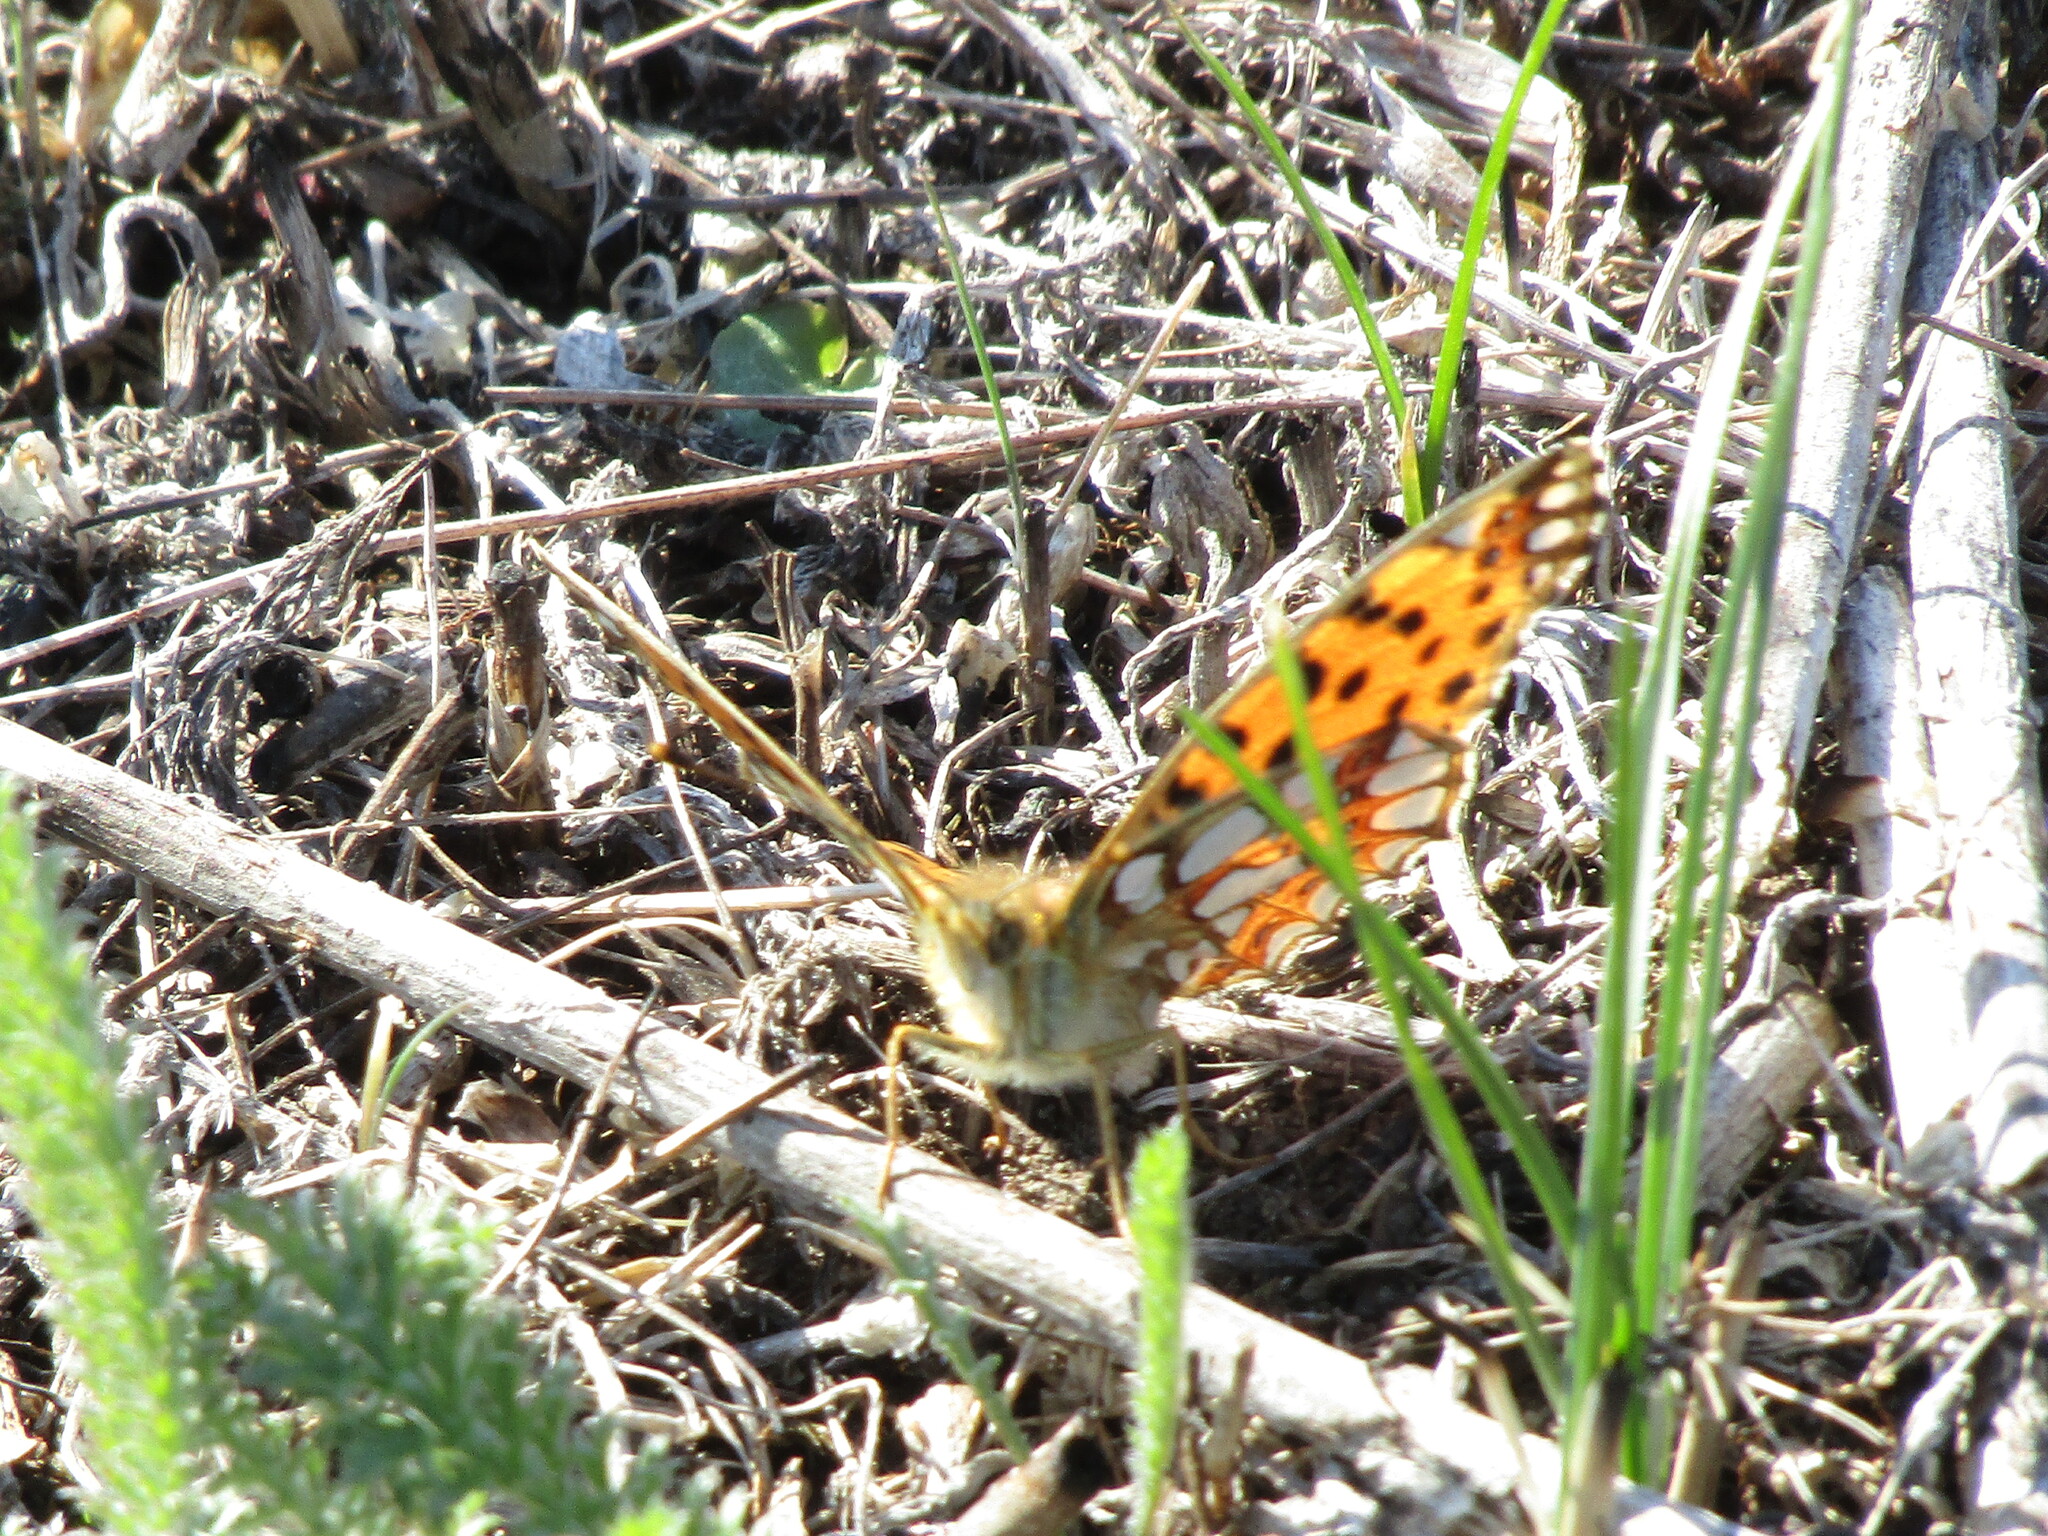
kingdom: Animalia
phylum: Arthropoda
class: Insecta
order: Lepidoptera
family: Nymphalidae
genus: Issoria
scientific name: Issoria lathonia
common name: Queen of spain fritillary
